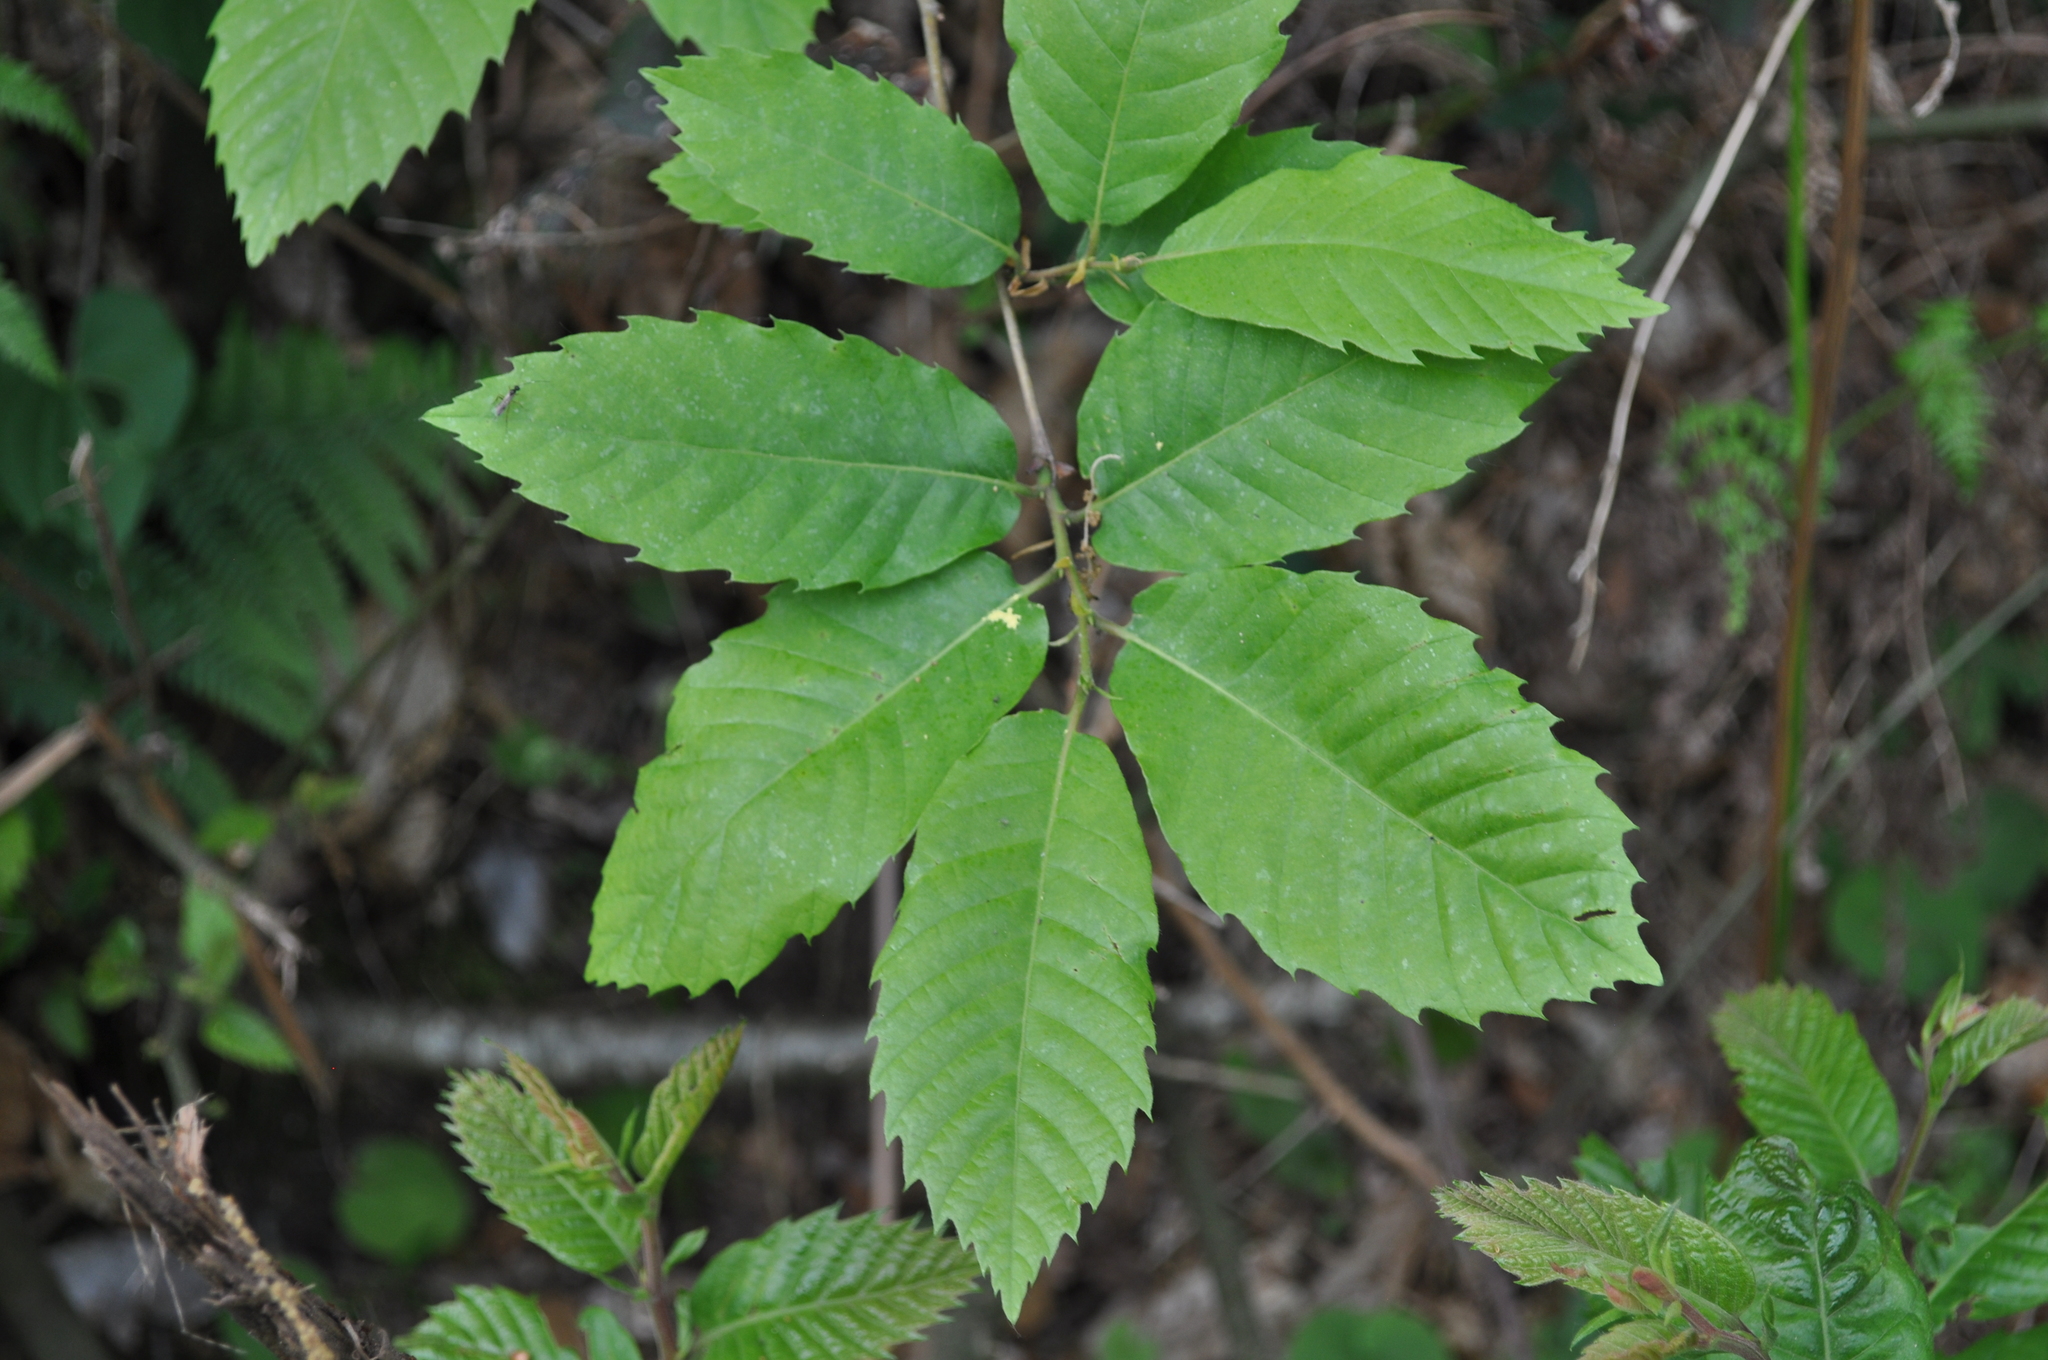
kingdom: Plantae
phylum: Tracheophyta
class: Magnoliopsida
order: Fagales
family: Fagaceae
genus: Castanea
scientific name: Castanea sativa
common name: Sweet chestnut
